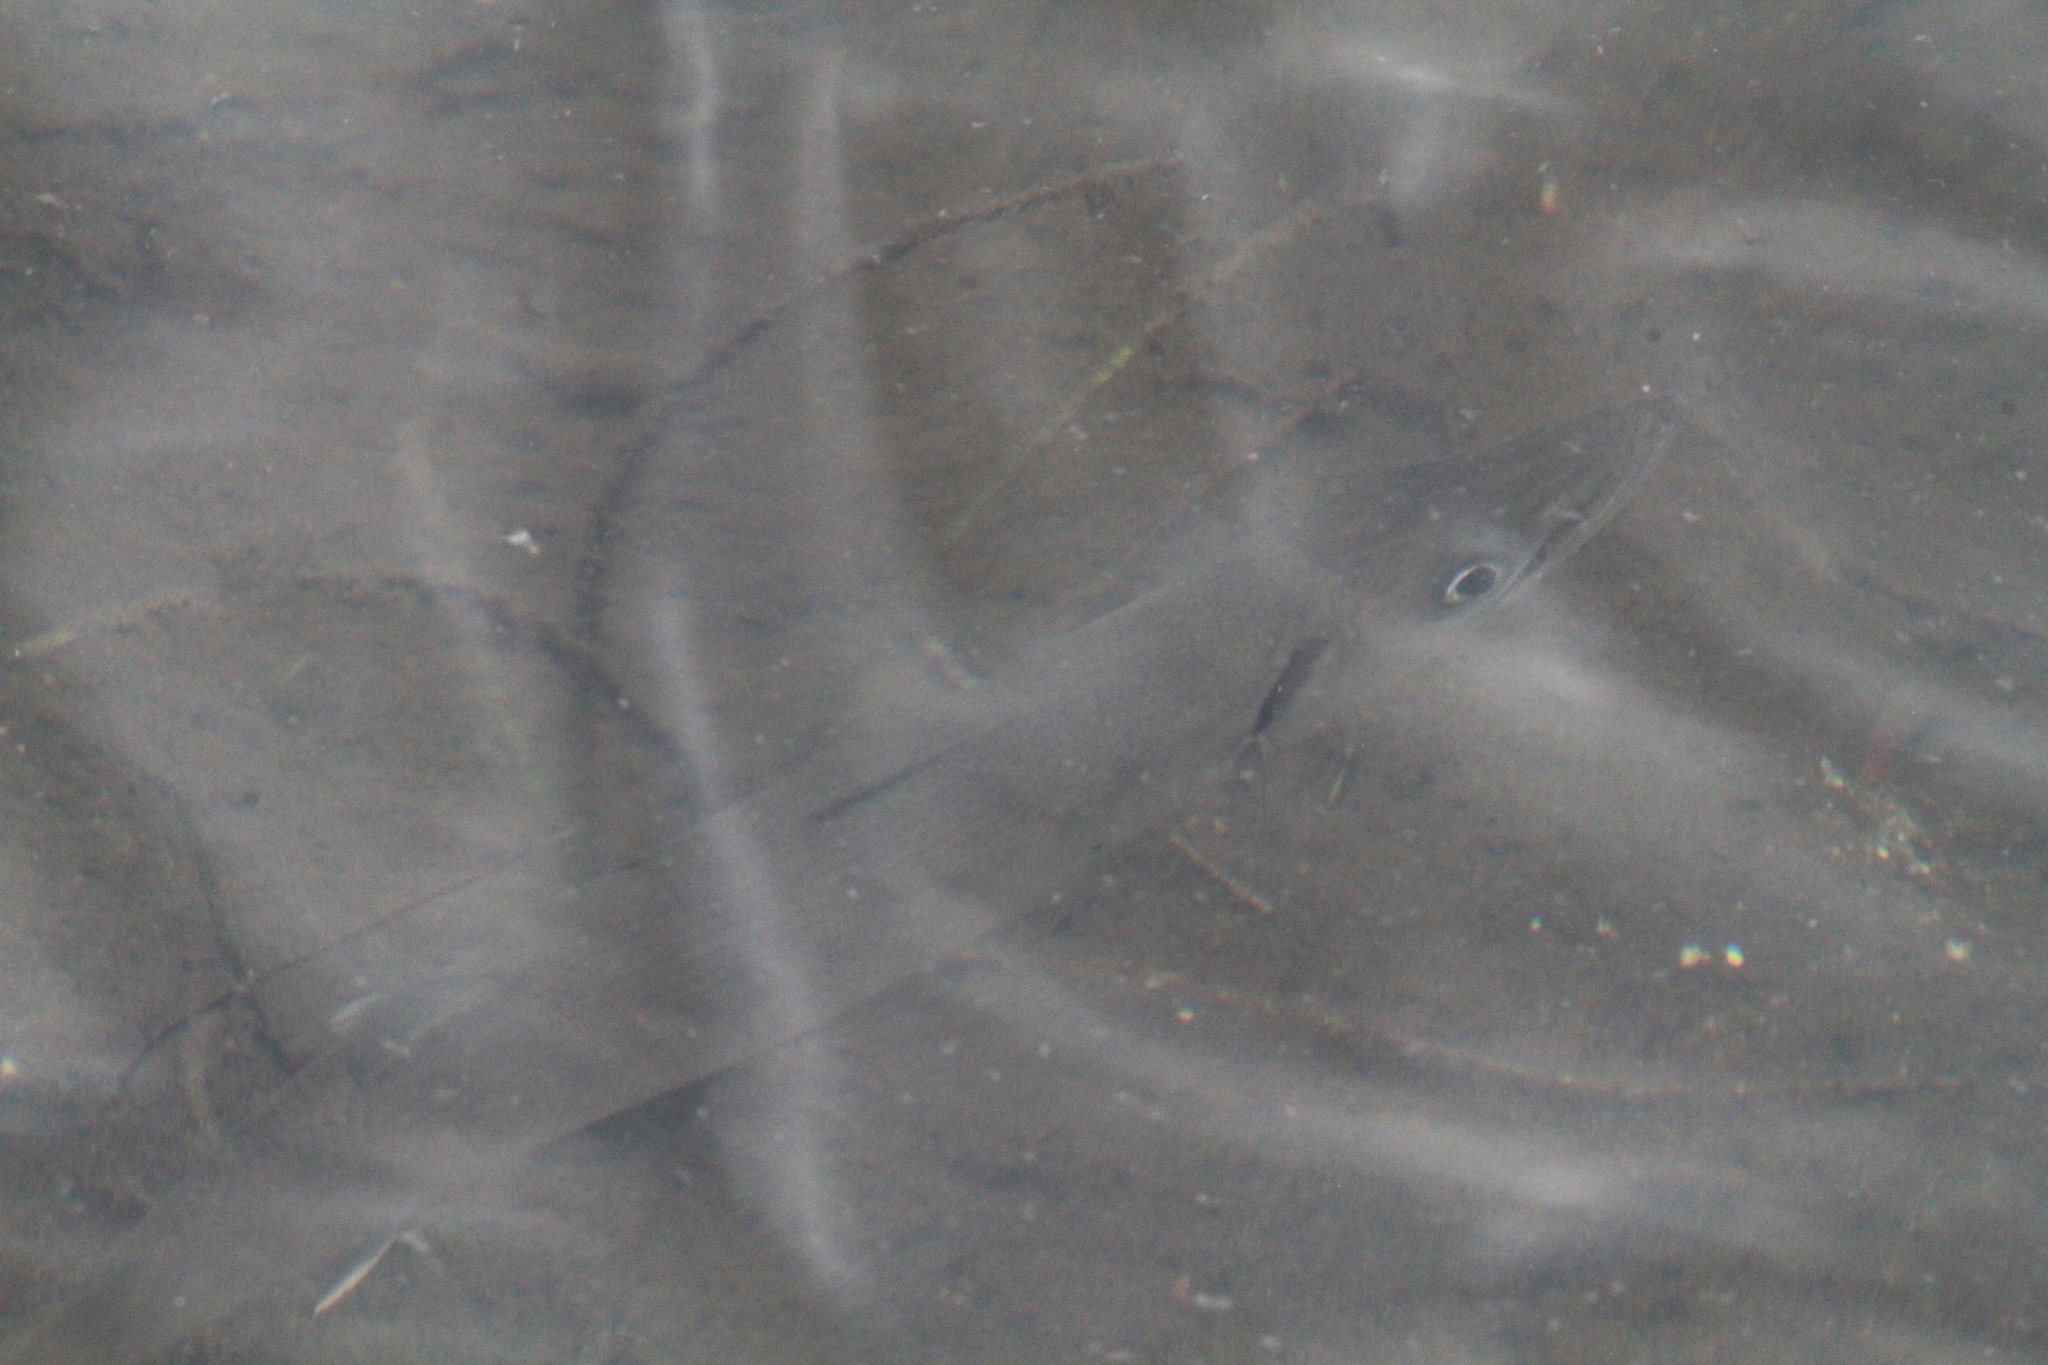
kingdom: Animalia
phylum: Chordata
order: Perciformes
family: Sphyraenidae
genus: Sphyraena
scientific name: Sphyraena barracuda
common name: Great barracuda
